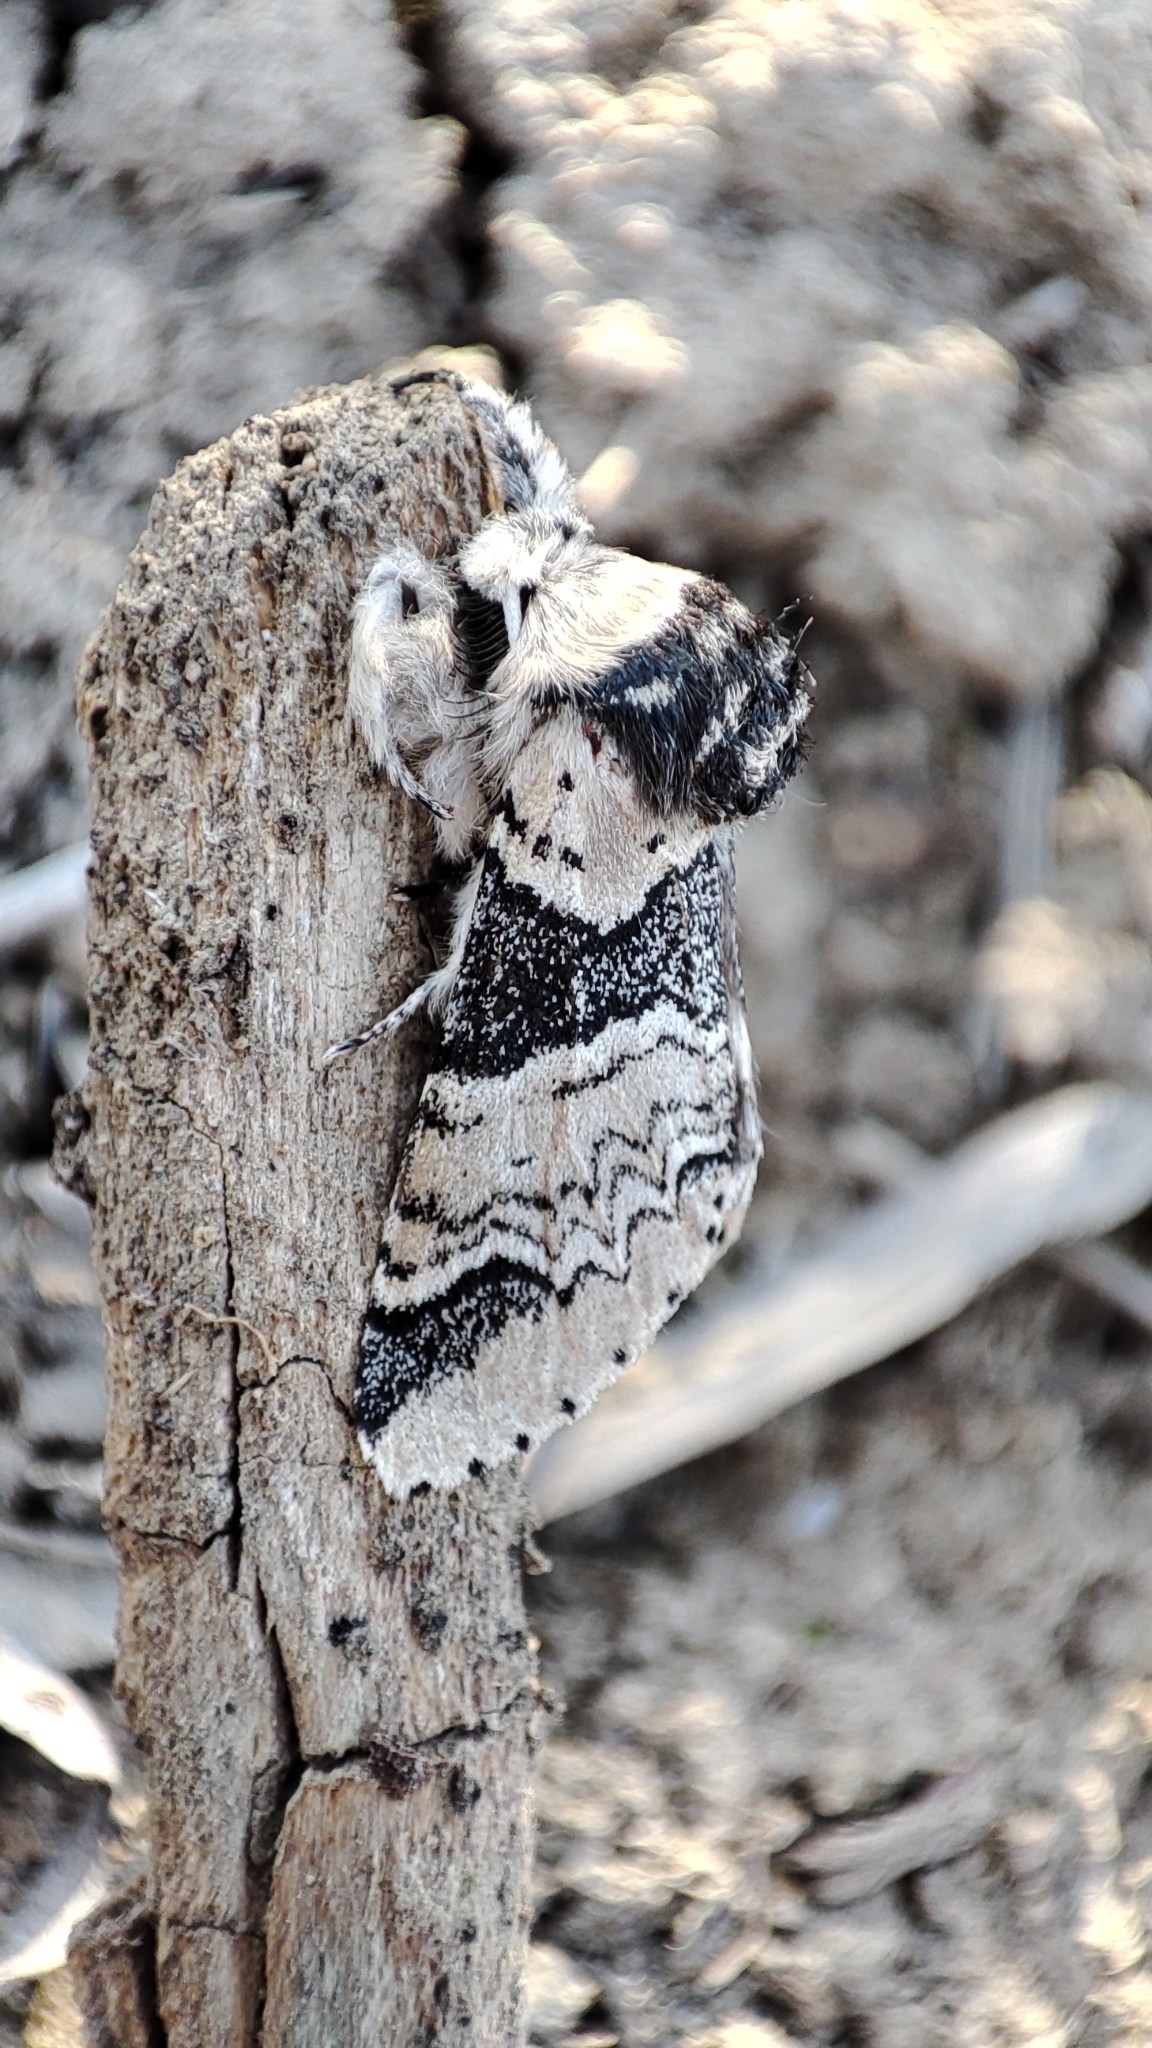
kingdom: Animalia
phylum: Arthropoda
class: Insecta
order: Lepidoptera
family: Notodontidae
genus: Furcula
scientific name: Furcula aeruginosa
